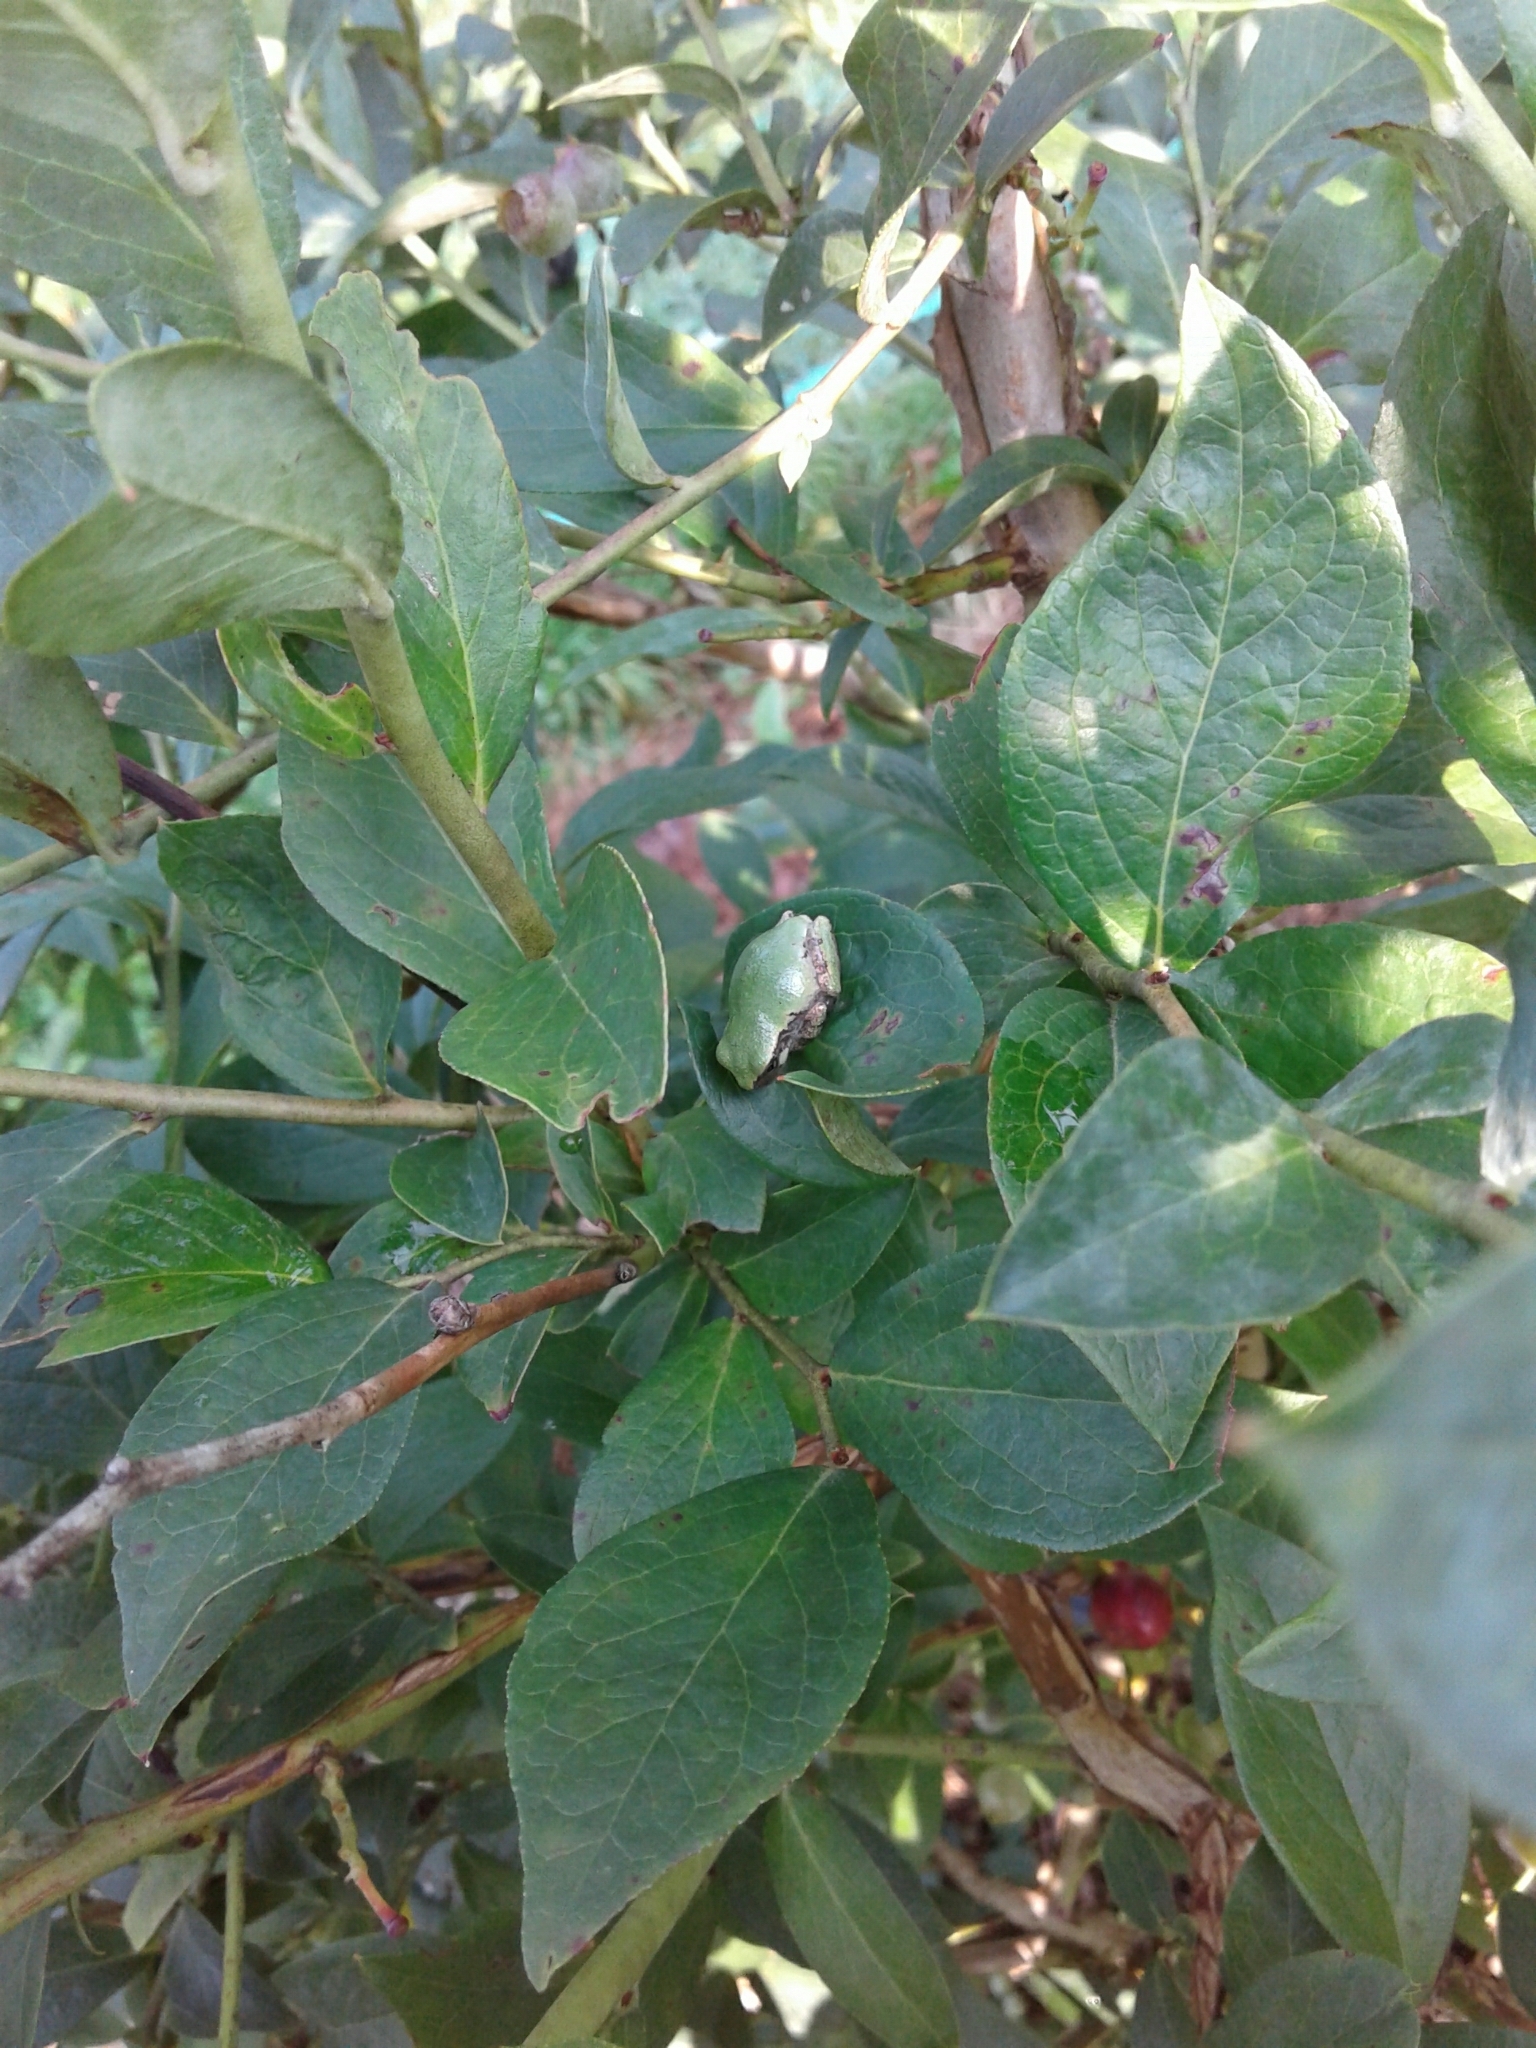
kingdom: Animalia
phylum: Chordata
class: Amphibia
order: Anura
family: Hylidae
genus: Dryophytes
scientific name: Dryophytes chrysoscelis
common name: Cope's gray treefrog
